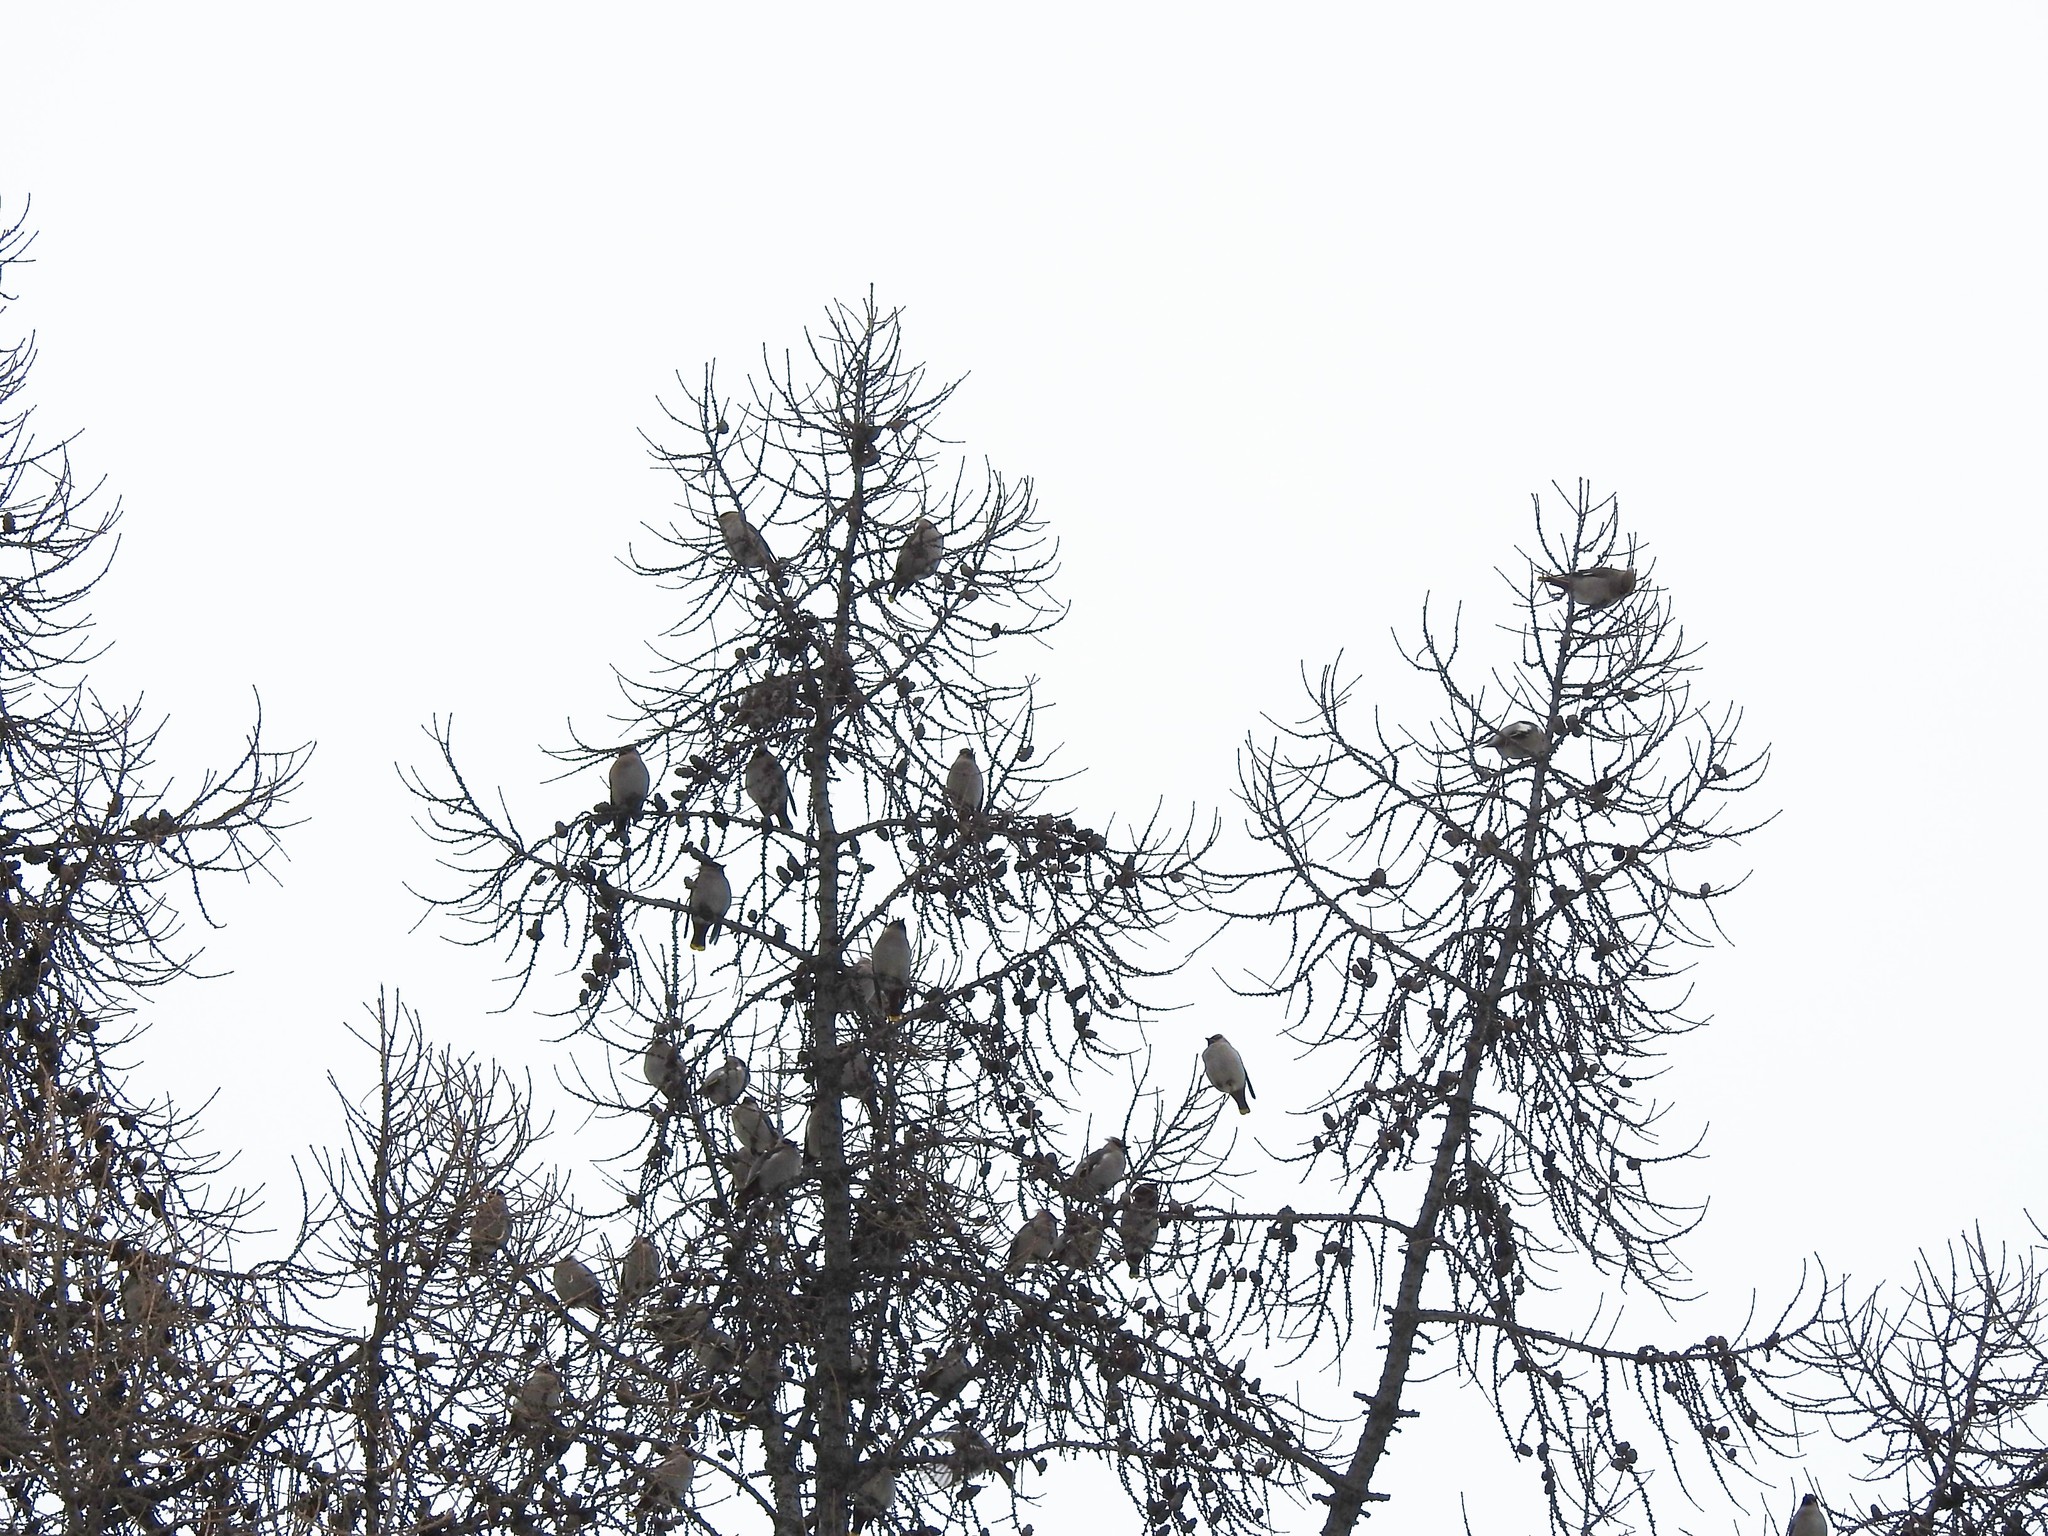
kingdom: Animalia
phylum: Chordata
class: Aves
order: Passeriformes
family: Bombycillidae
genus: Bombycilla
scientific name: Bombycilla garrulus
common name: Bohemian waxwing
